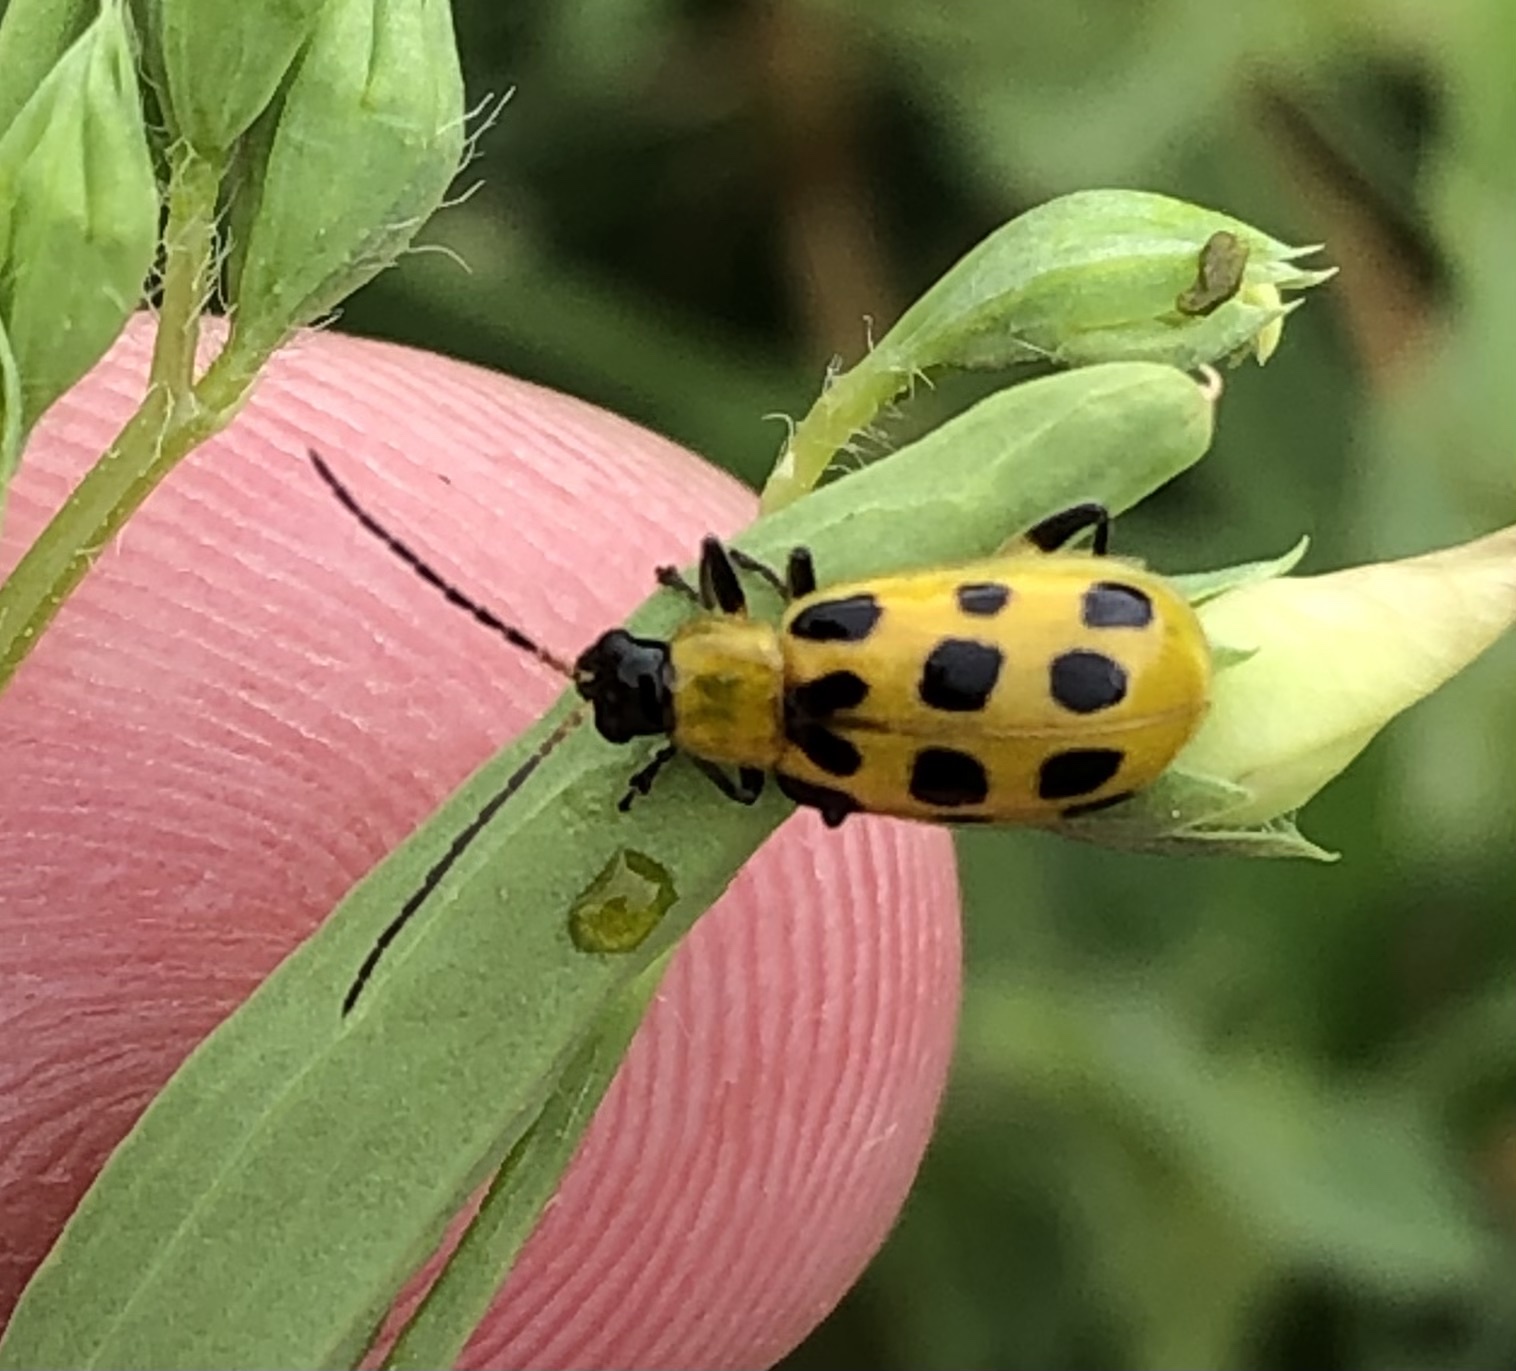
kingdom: Animalia
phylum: Arthropoda
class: Insecta
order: Coleoptera
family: Chrysomelidae
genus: Diabrotica
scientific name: Diabrotica undecimpunctata
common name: Spotted cucumber beetle
